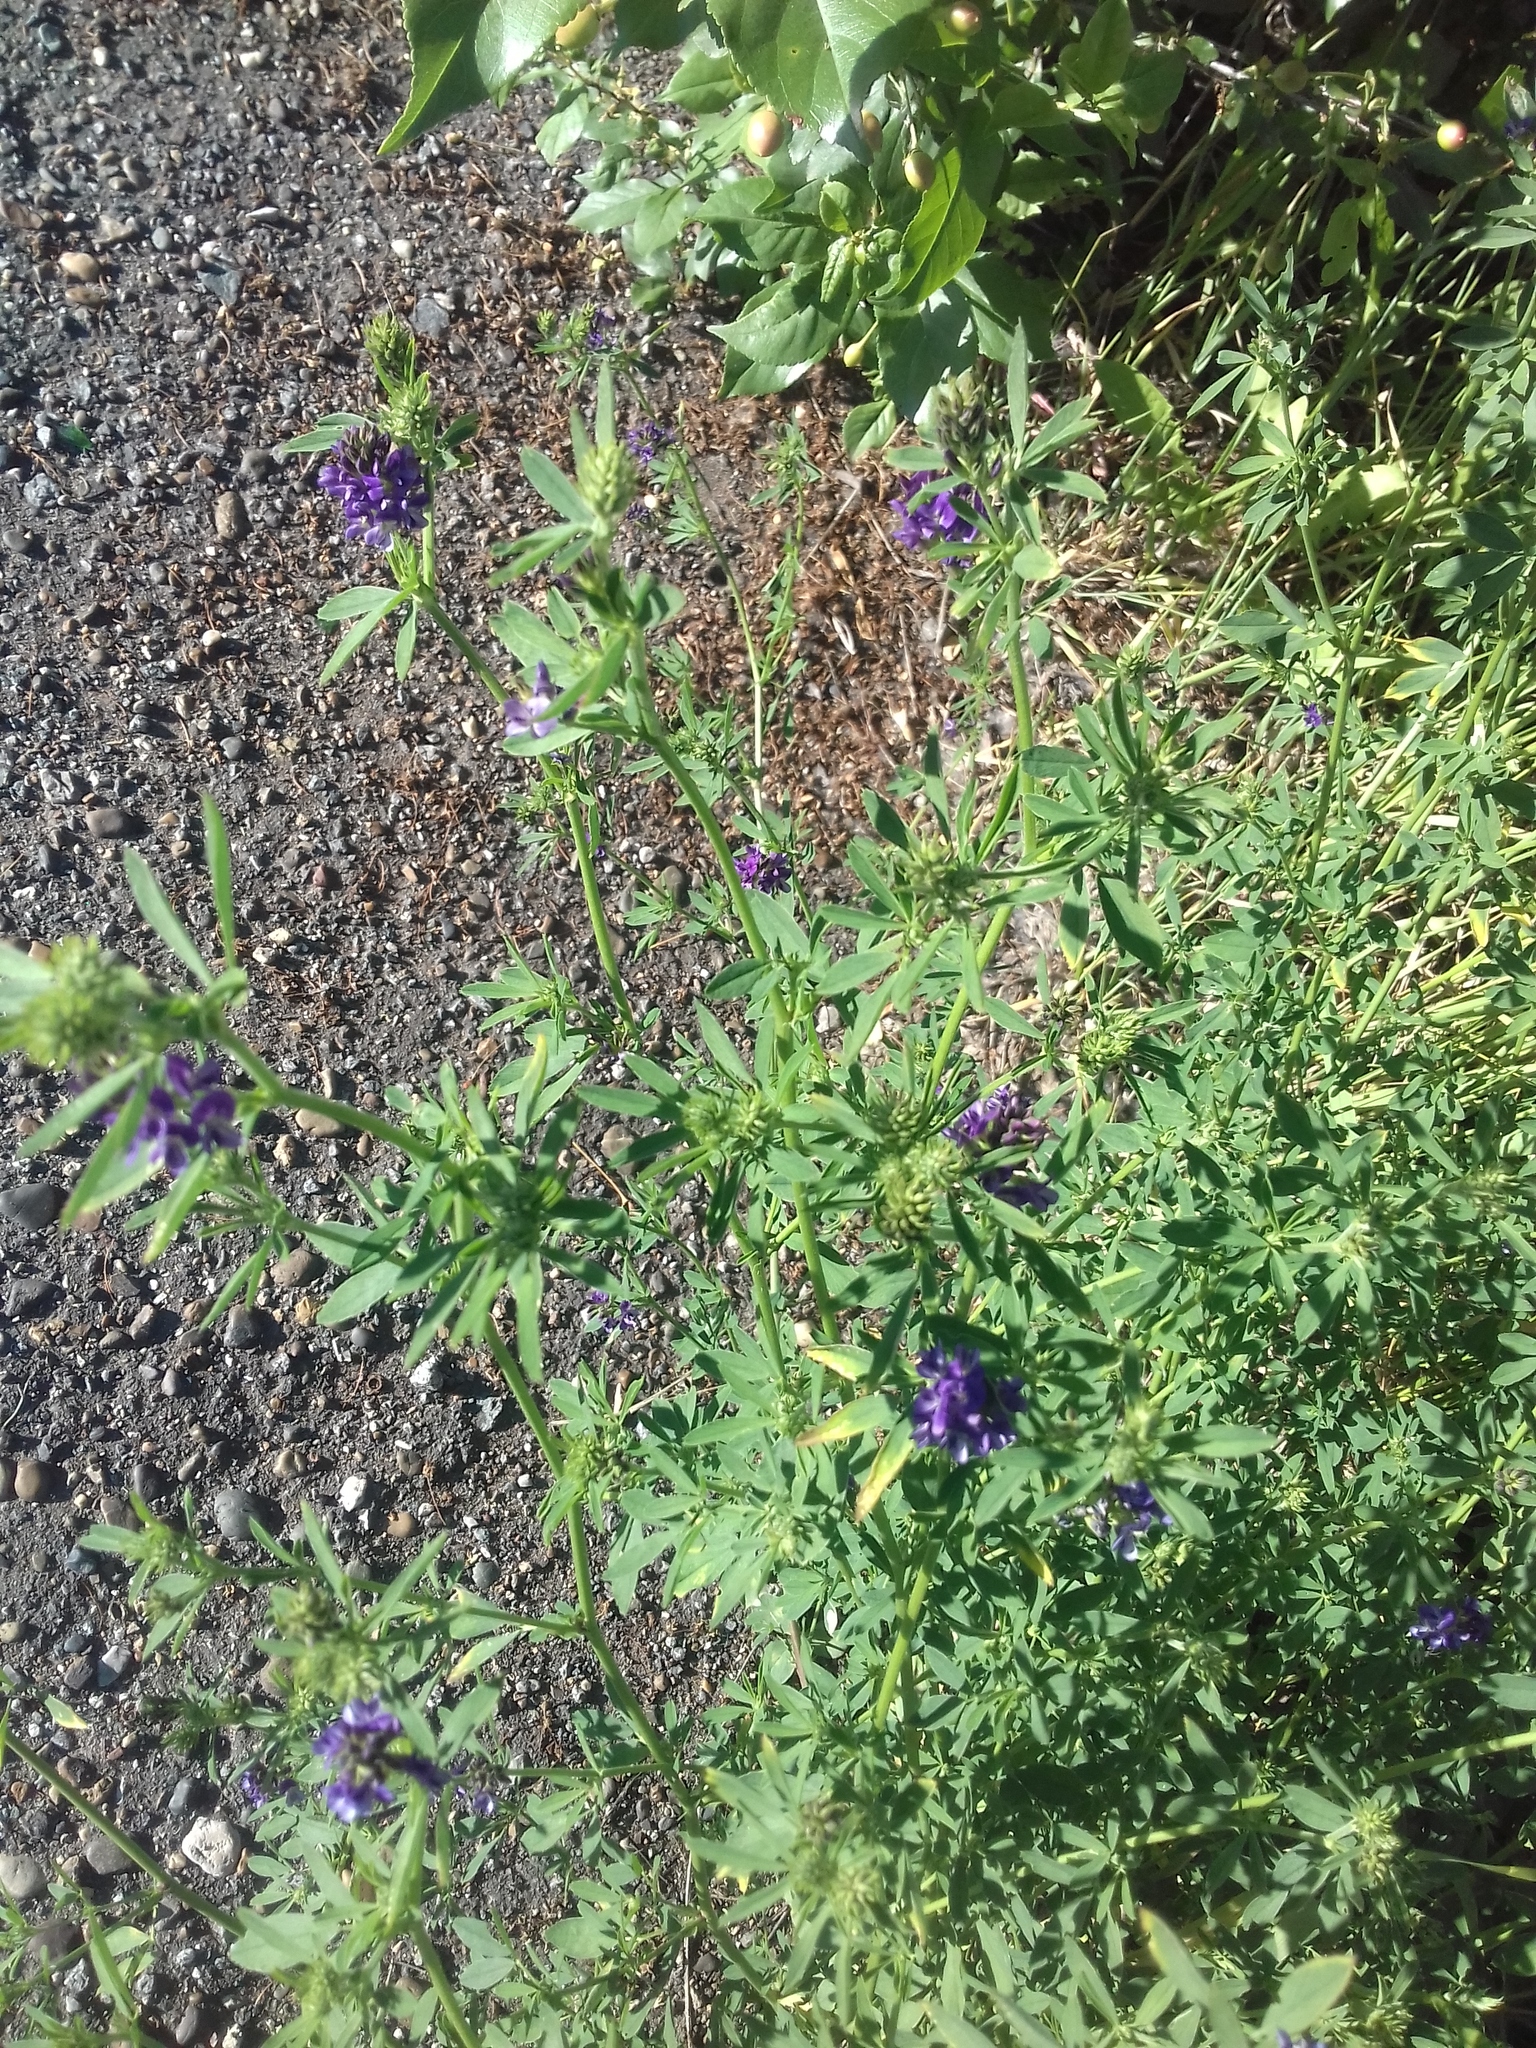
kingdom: Plantae
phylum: Tracheophyta
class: Magnoliopsida
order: Fabales
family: Fabaceae
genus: Medicago
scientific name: Medicago sativa
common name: Alfalfa
